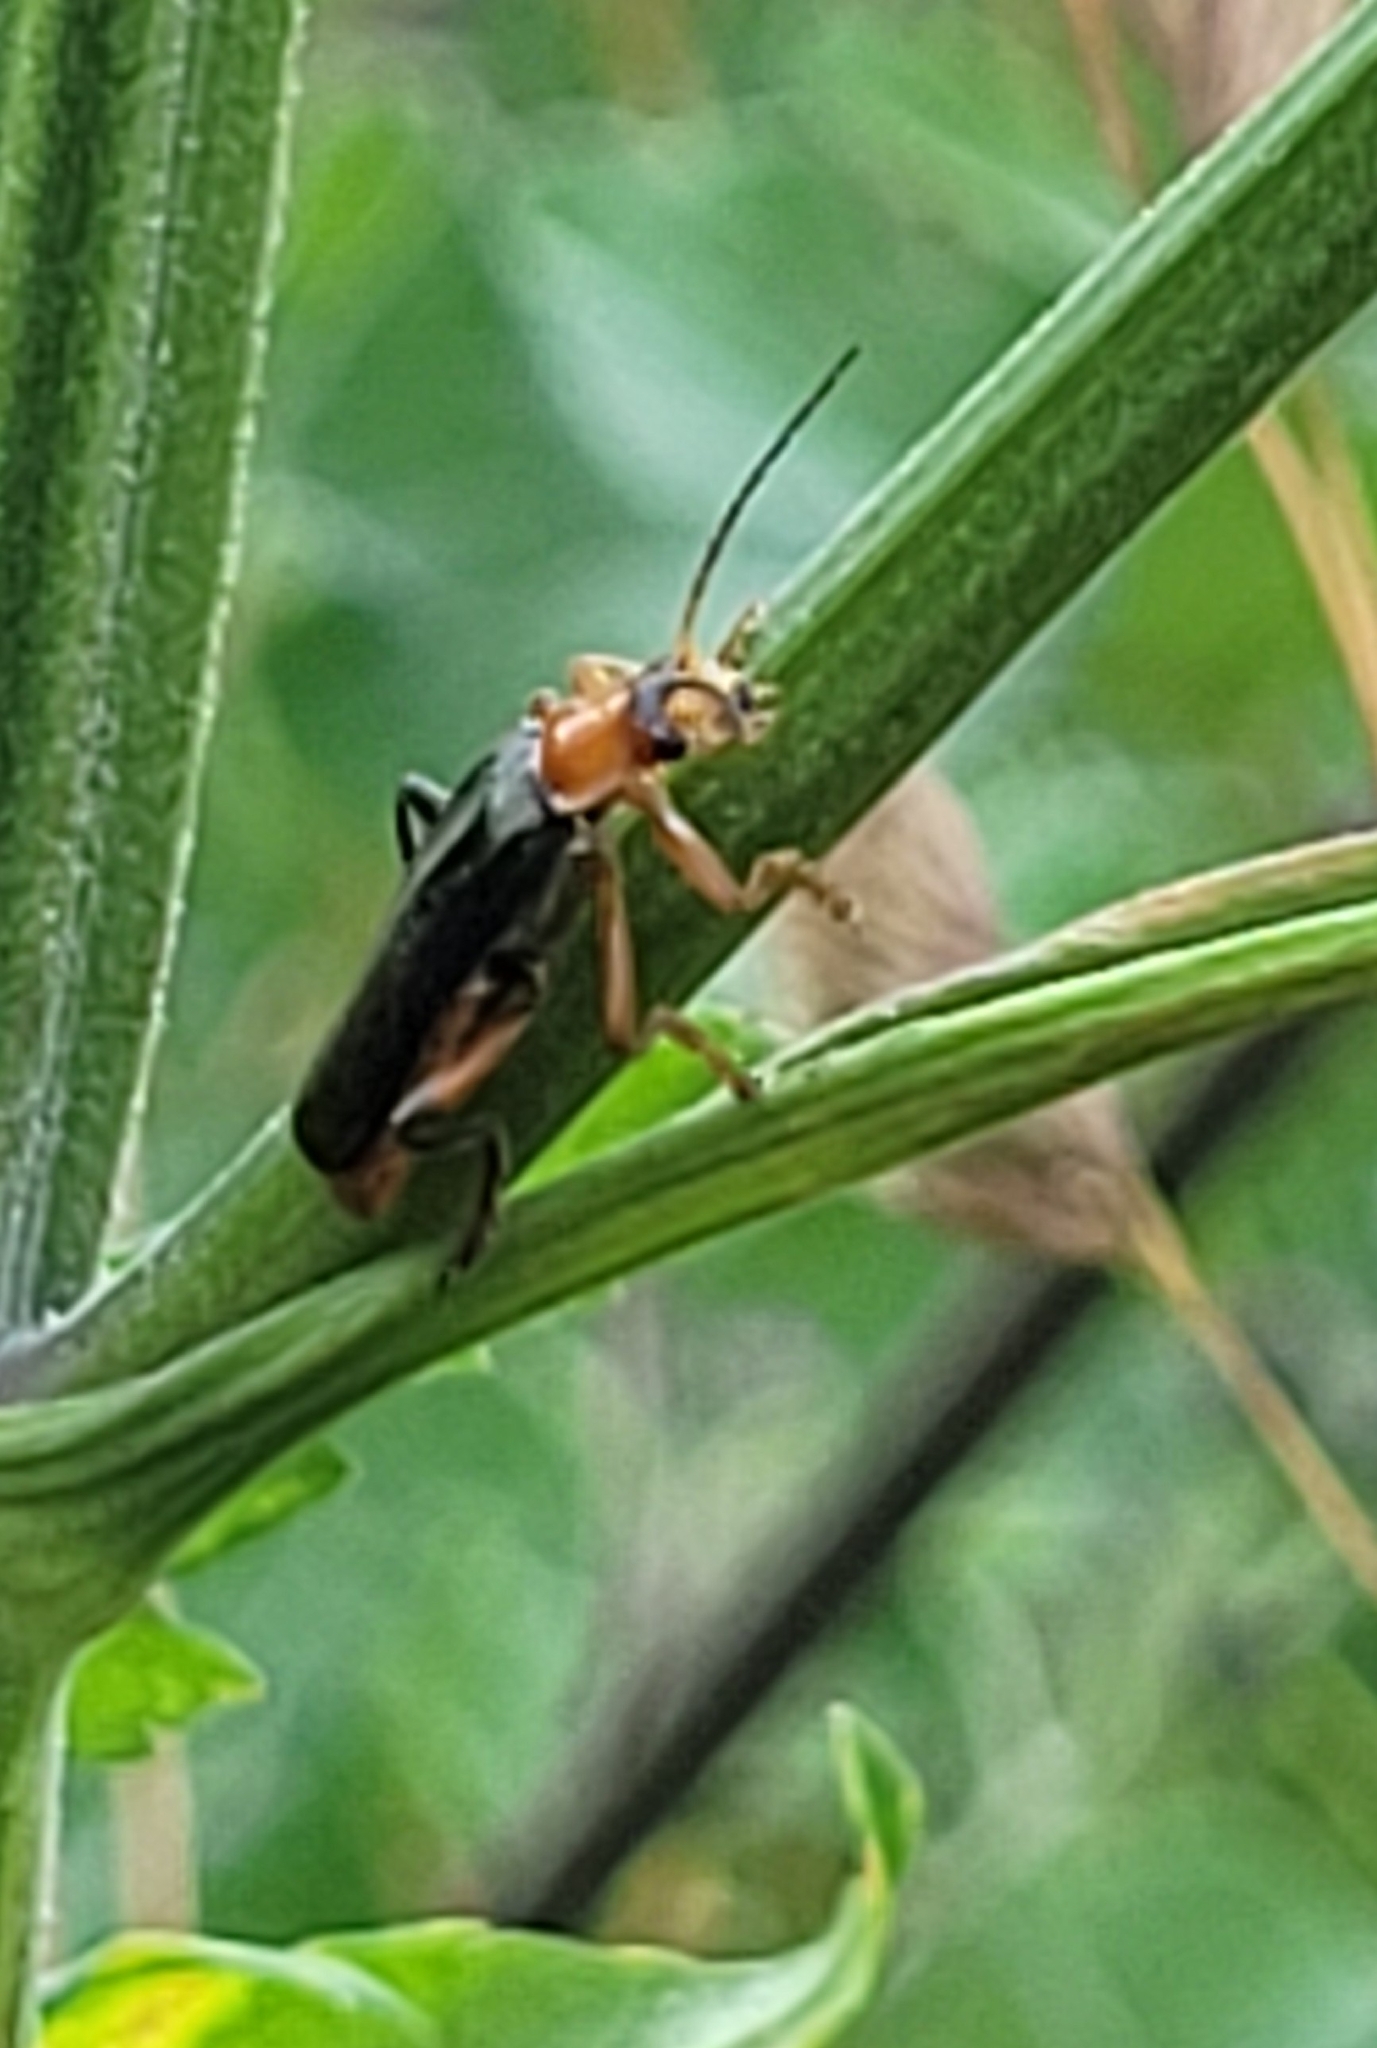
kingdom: Animalia
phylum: Arthropoda
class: Insecta
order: Coleoptera
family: Cantharidae
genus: Cantharis
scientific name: Cantharis livida
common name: Livid soldier beetle
